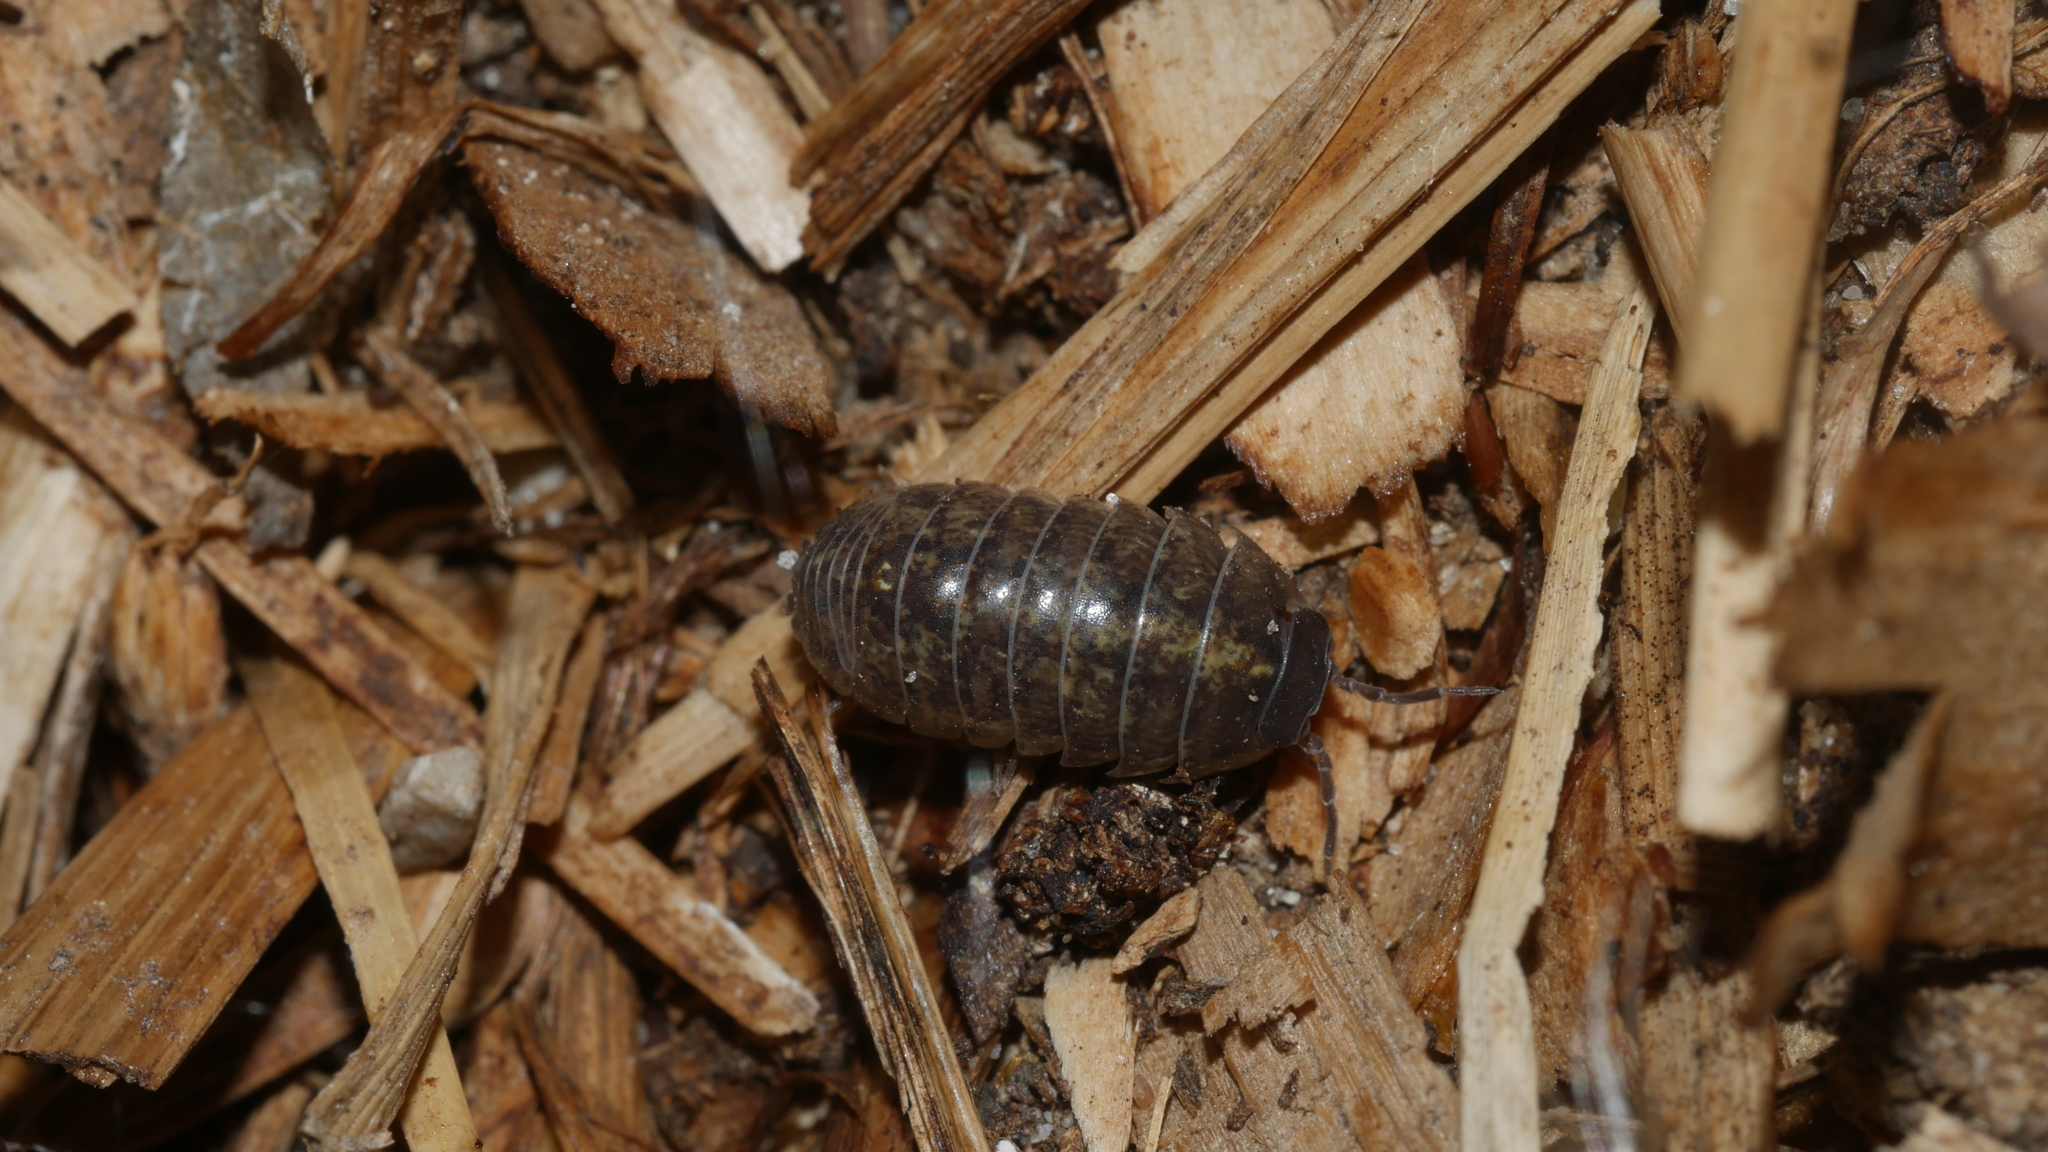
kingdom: Animalia
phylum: Arthropoda
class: Malacostraca
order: Isopoda
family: Armadillidiidae
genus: Armadillidium
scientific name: Armadillidium vulgare
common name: Common pill woodlouse
